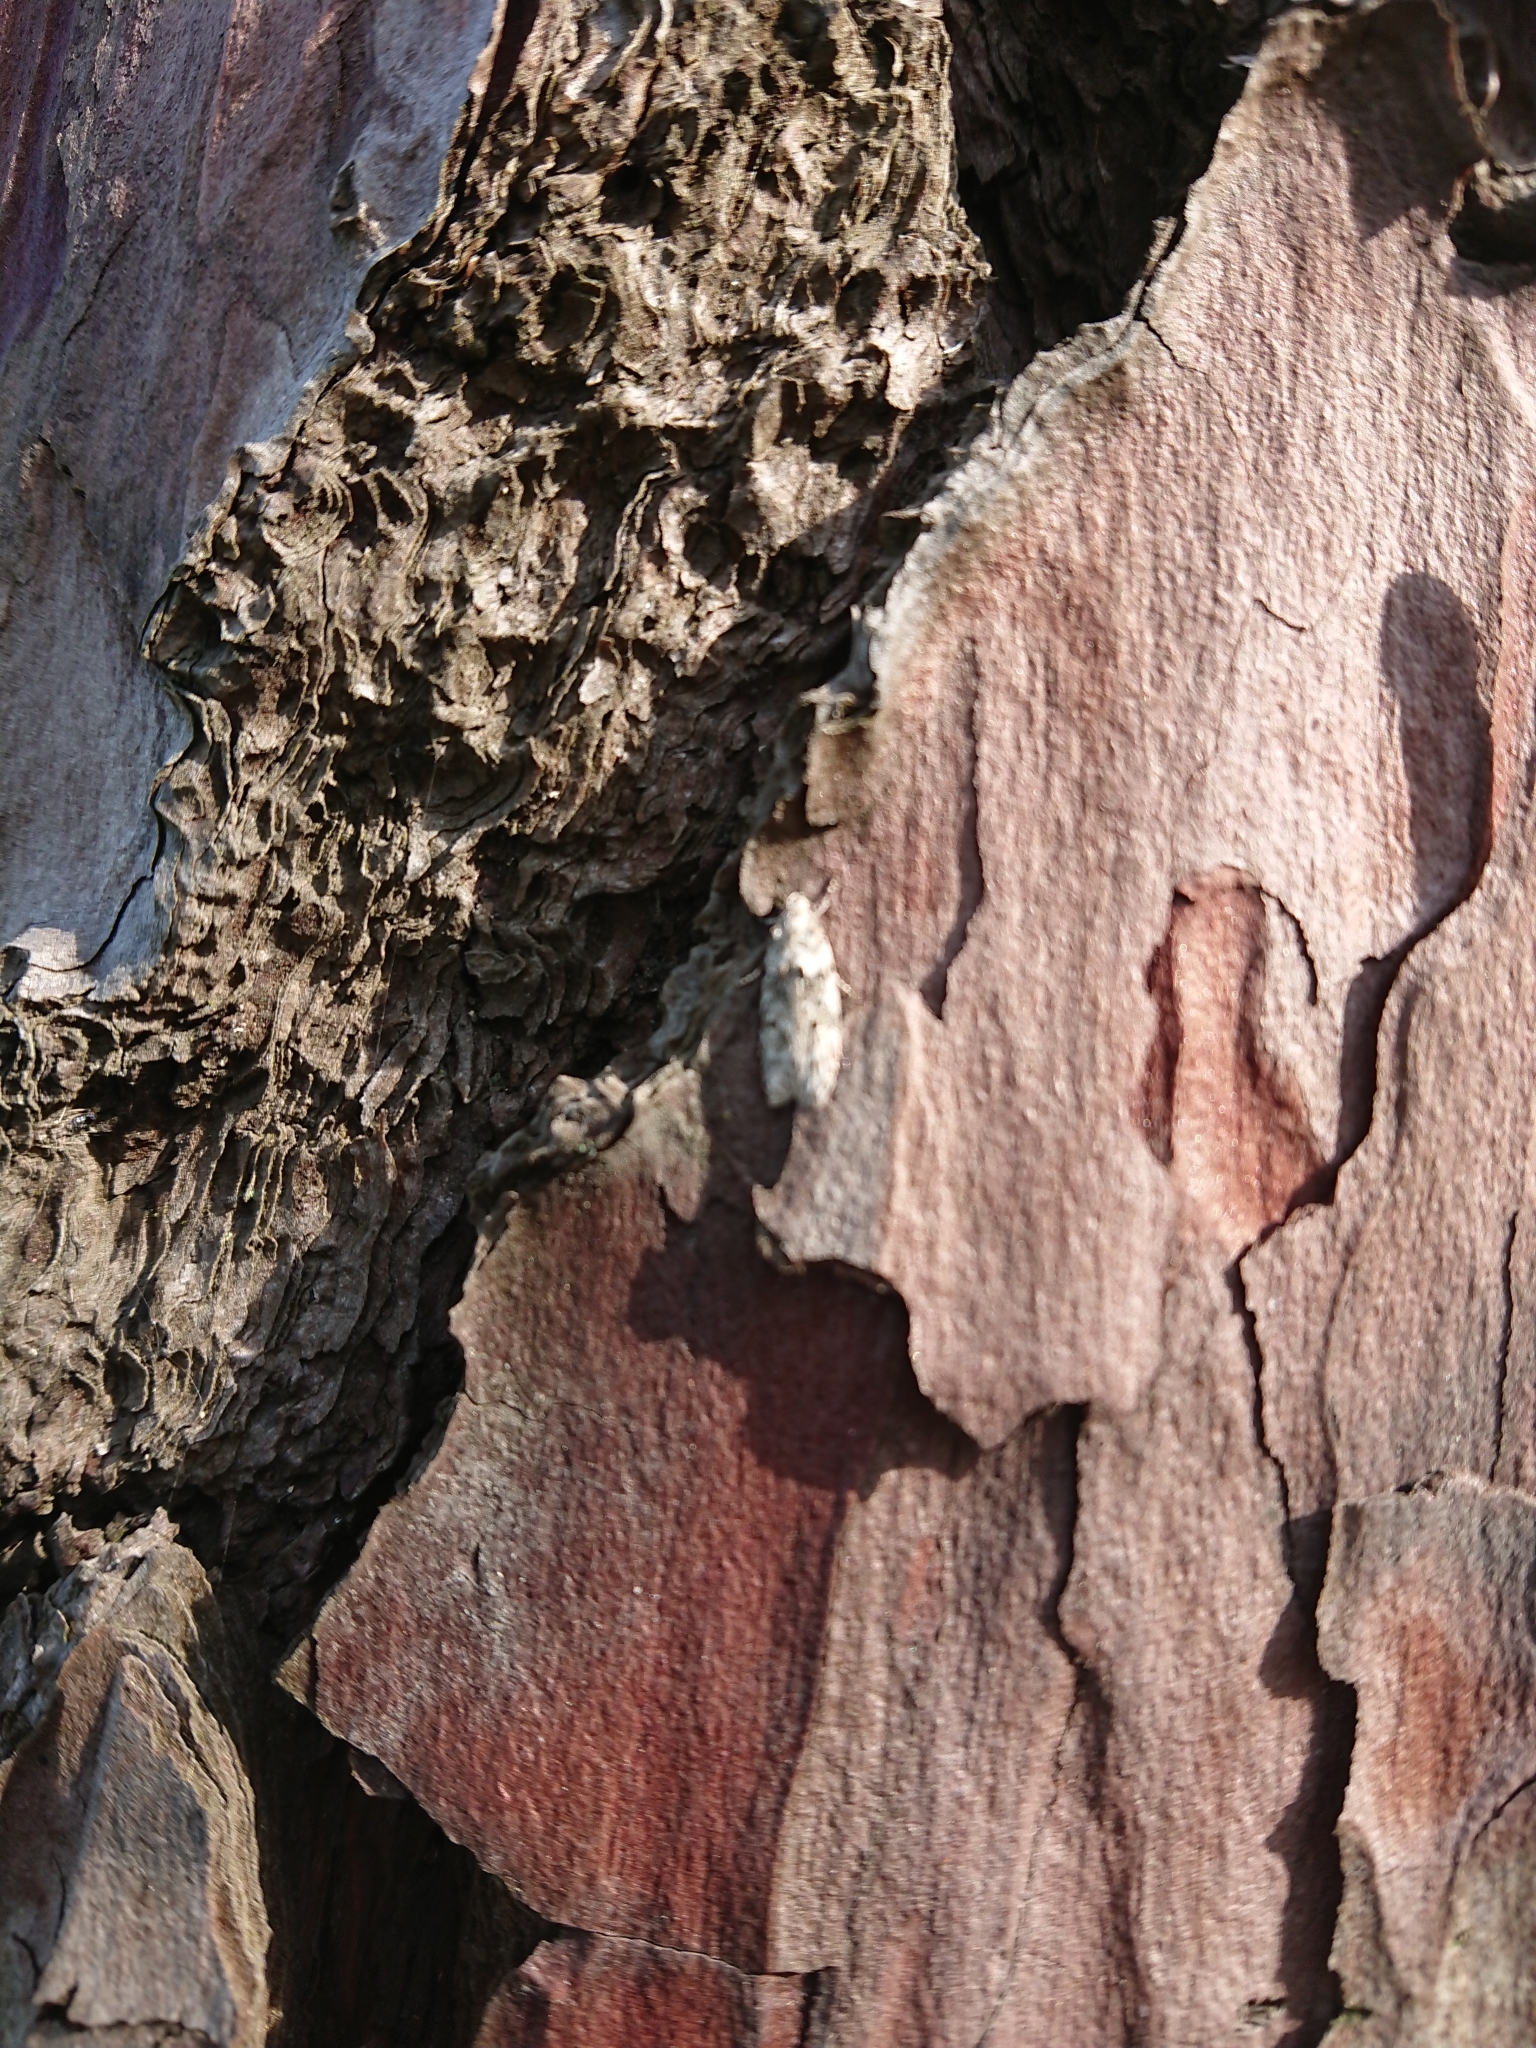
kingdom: Animalia
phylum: Arthropoda
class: Insecta
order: Lepidoptera
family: Oecophoridae
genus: Izatha
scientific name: Izatha convulsella
